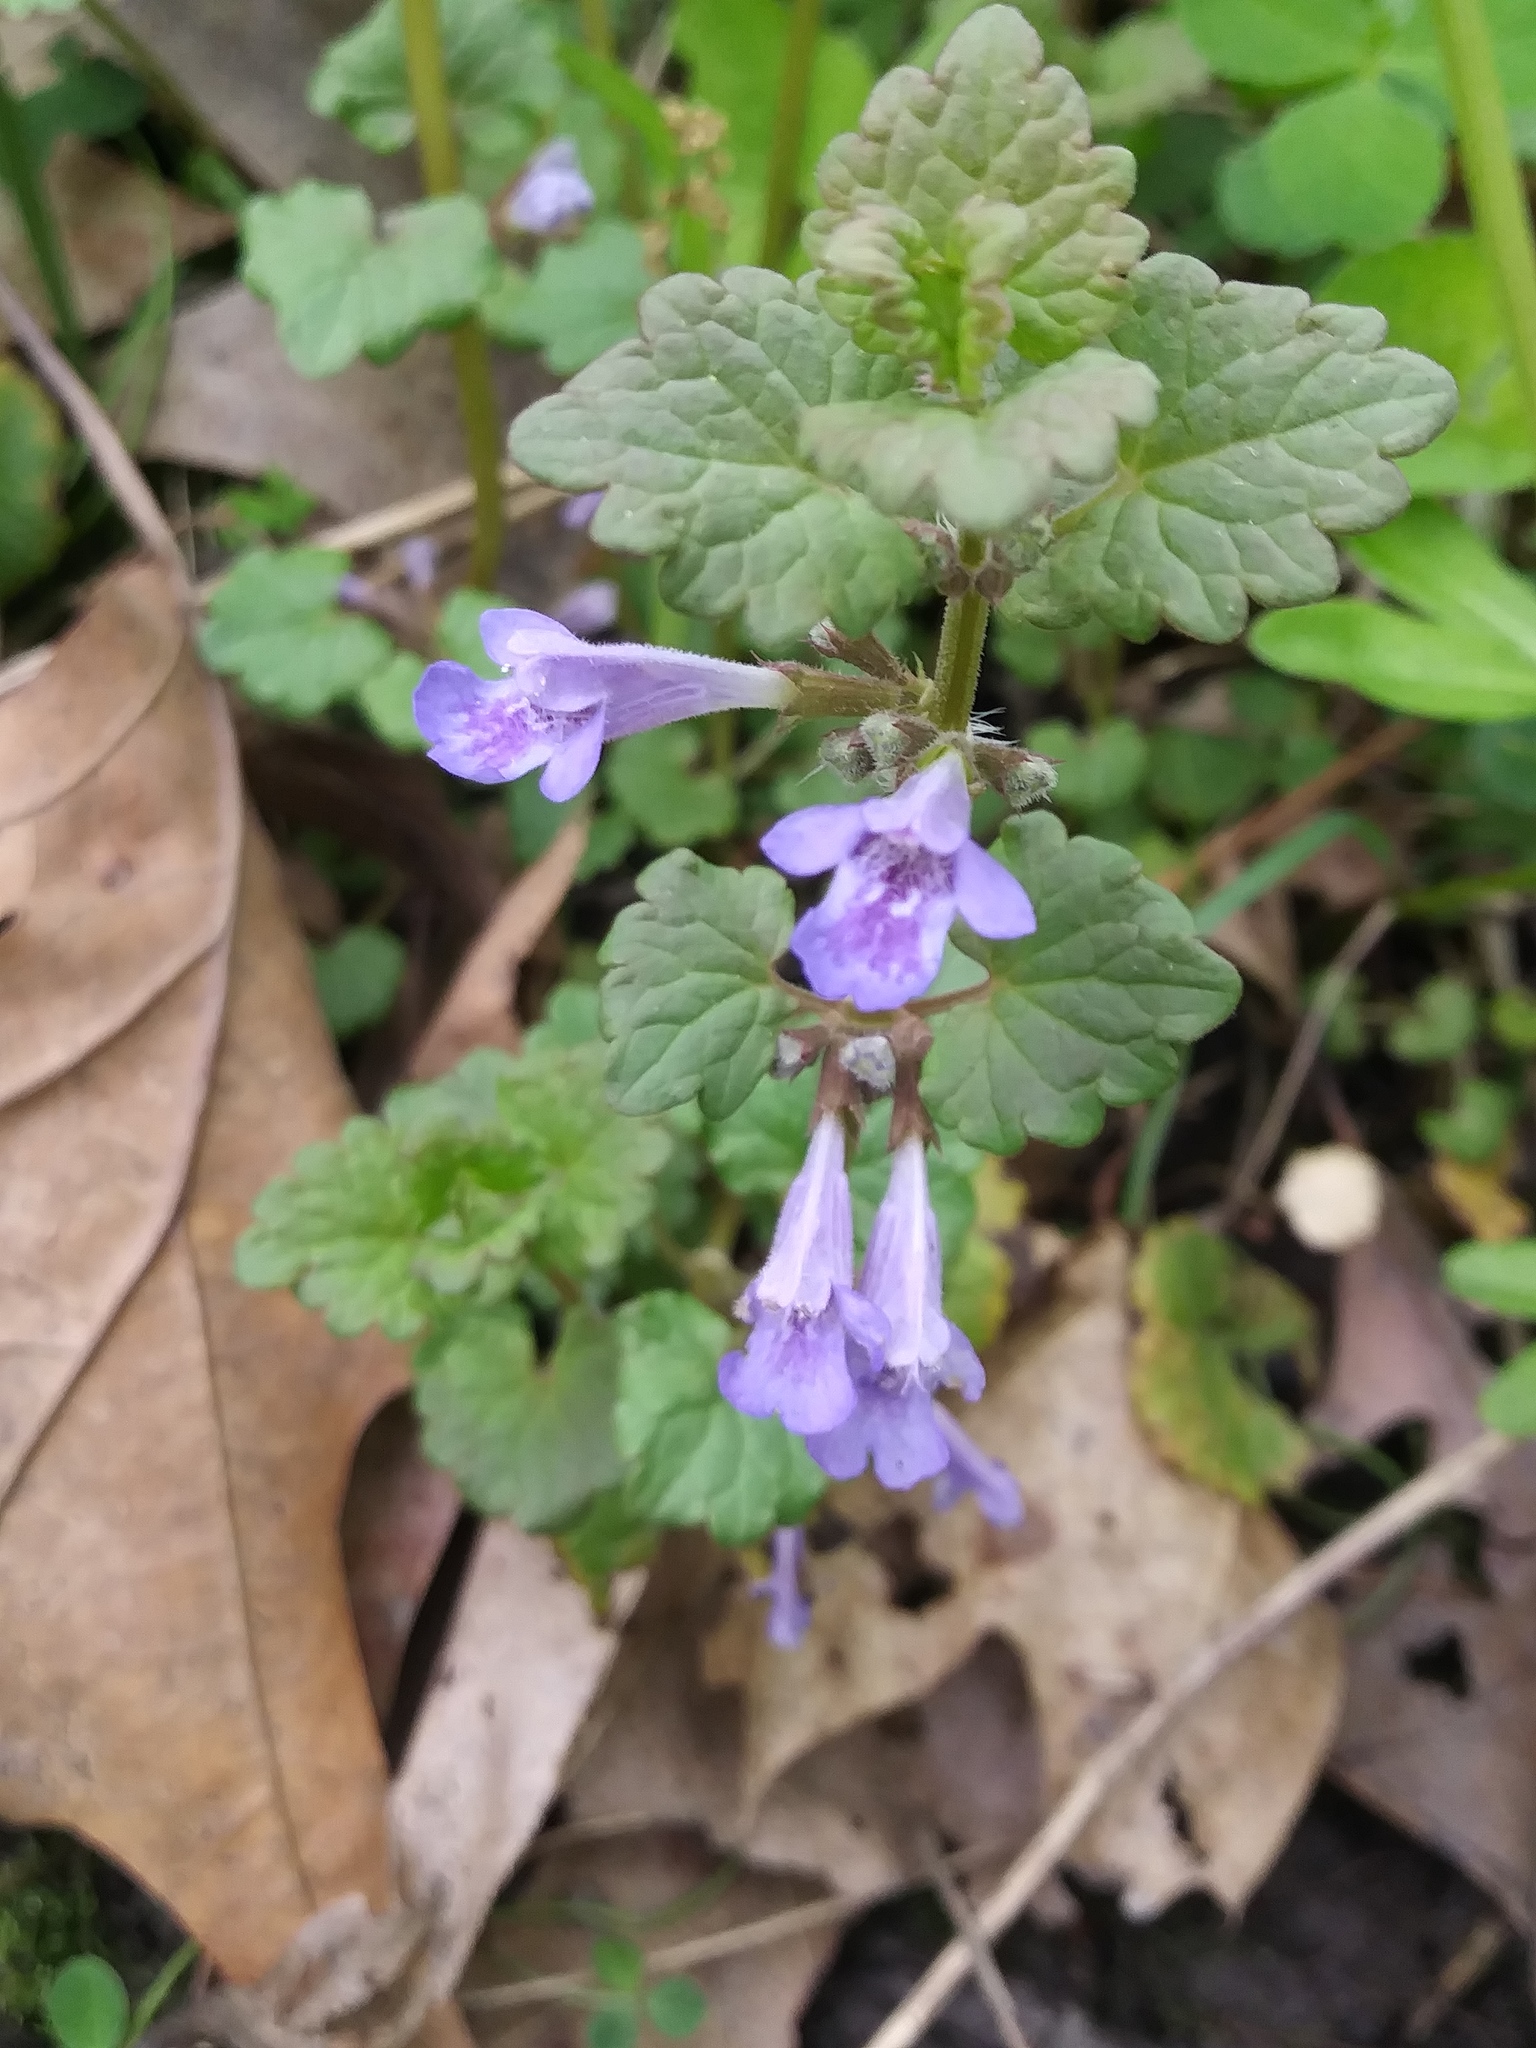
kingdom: Plantae
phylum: Tracheophyta
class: Magnoliopsida
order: Lamiales
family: Lamiaceae
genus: Glechoma
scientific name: Glechoma hederacea
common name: Ground ivy
